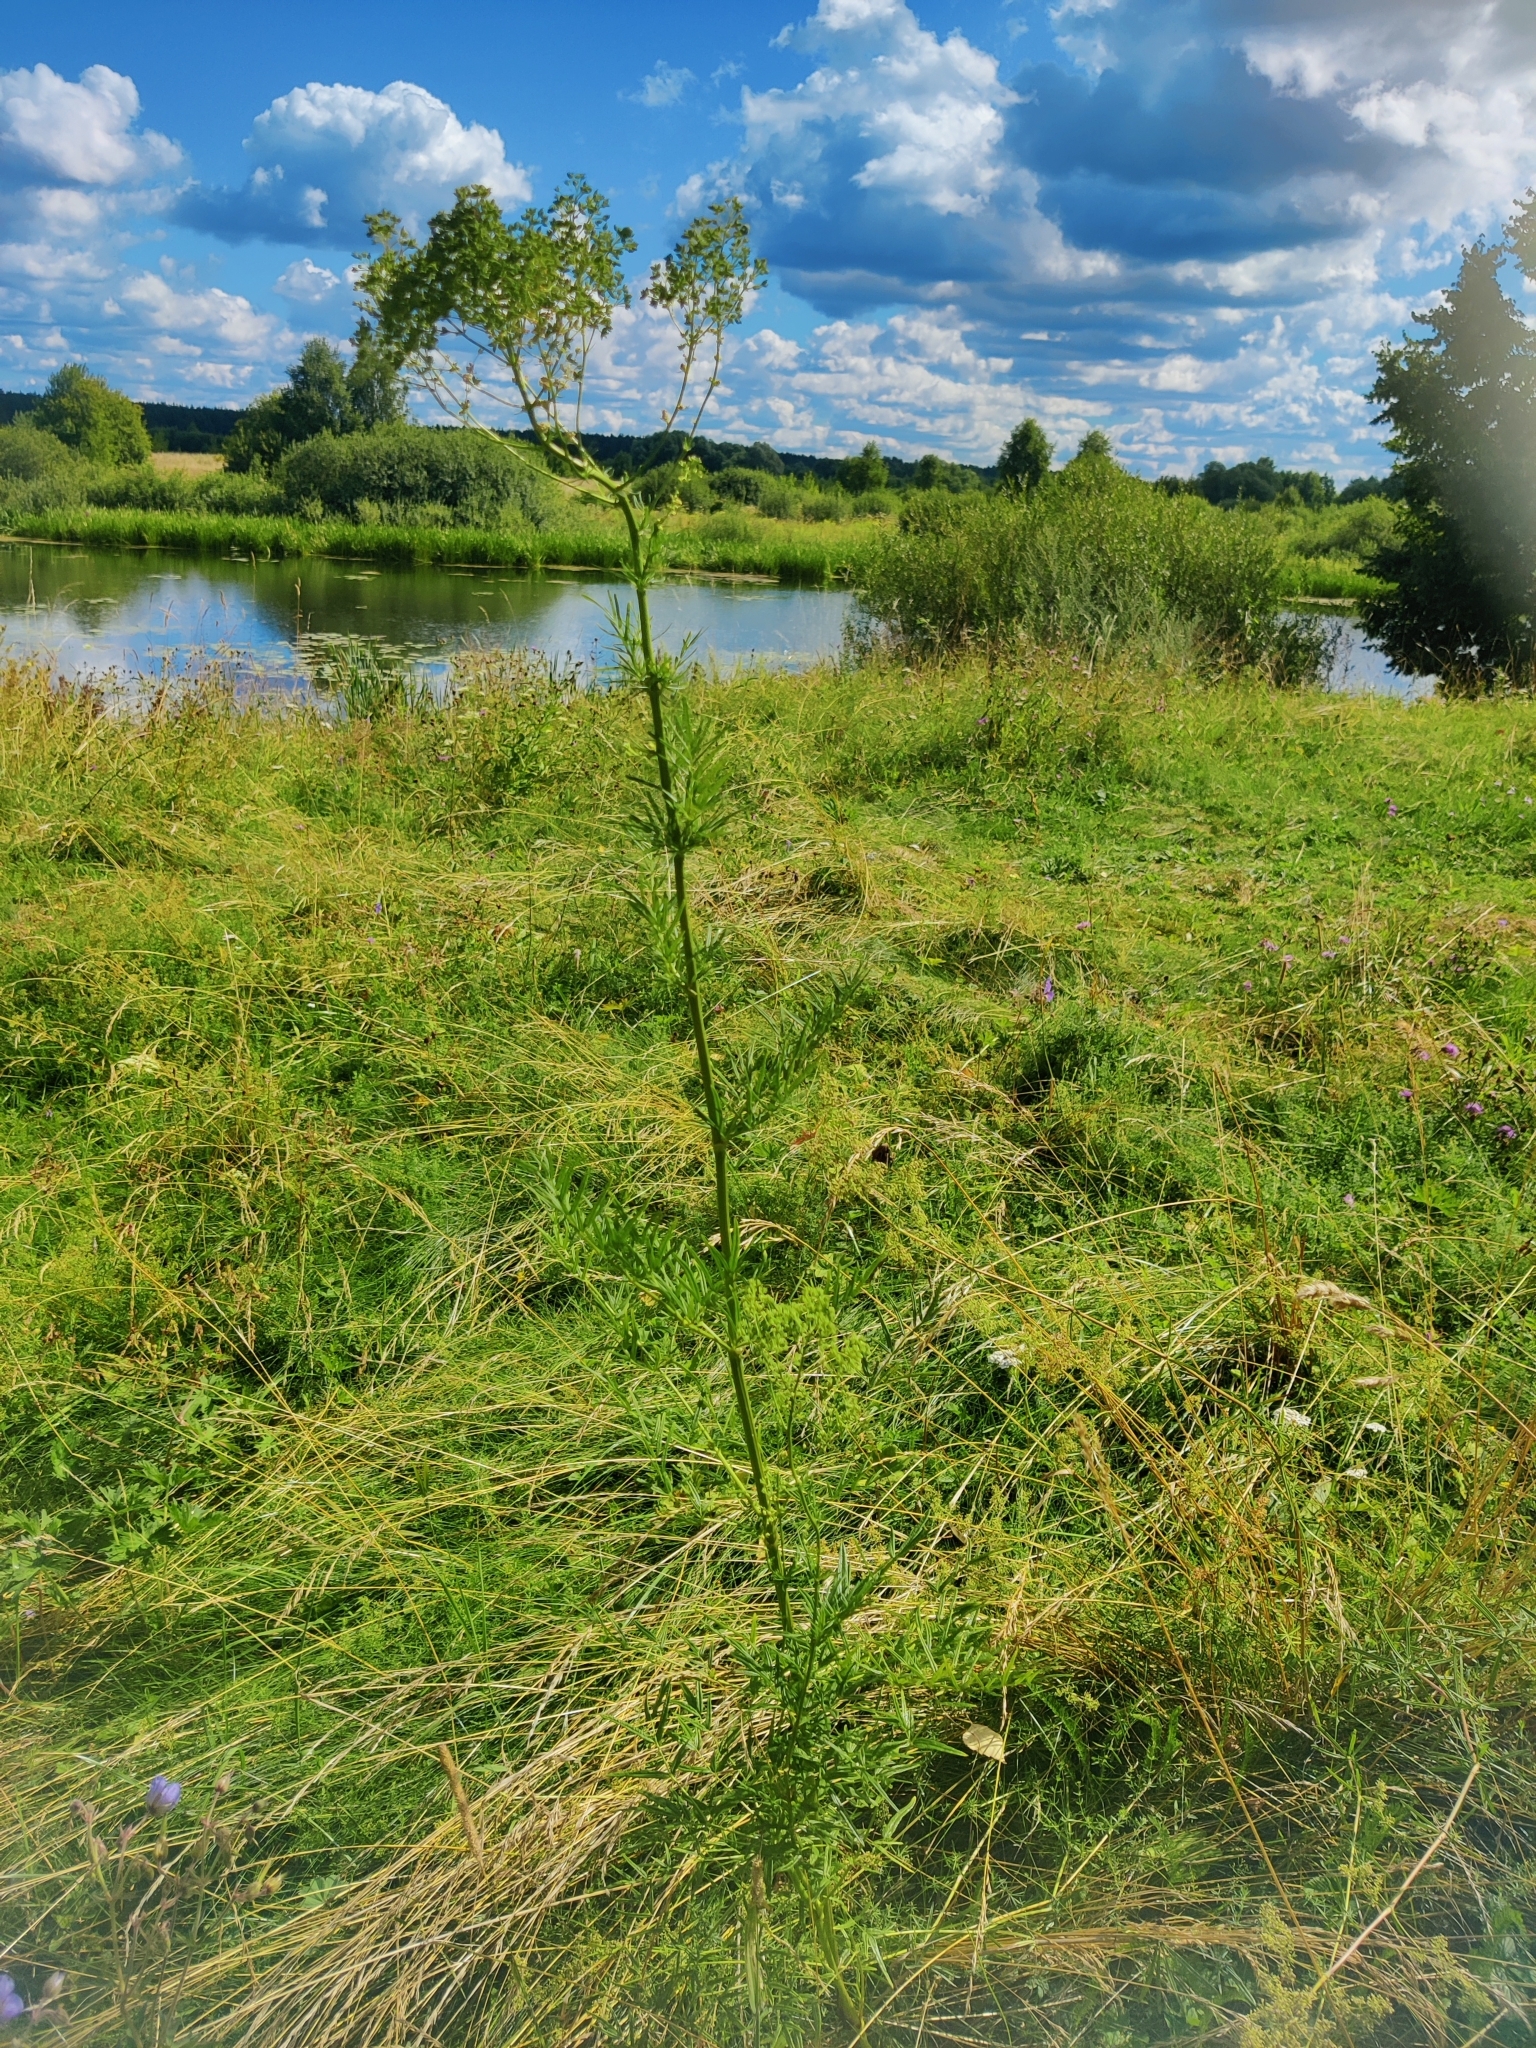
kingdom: Plantae
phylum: Tracheophyta
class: Magnoliopsida
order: Ranunculales
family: Ranunculaceae
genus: Thalictrum
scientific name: Thalictrum lucidum
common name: Shining meadow-rue
